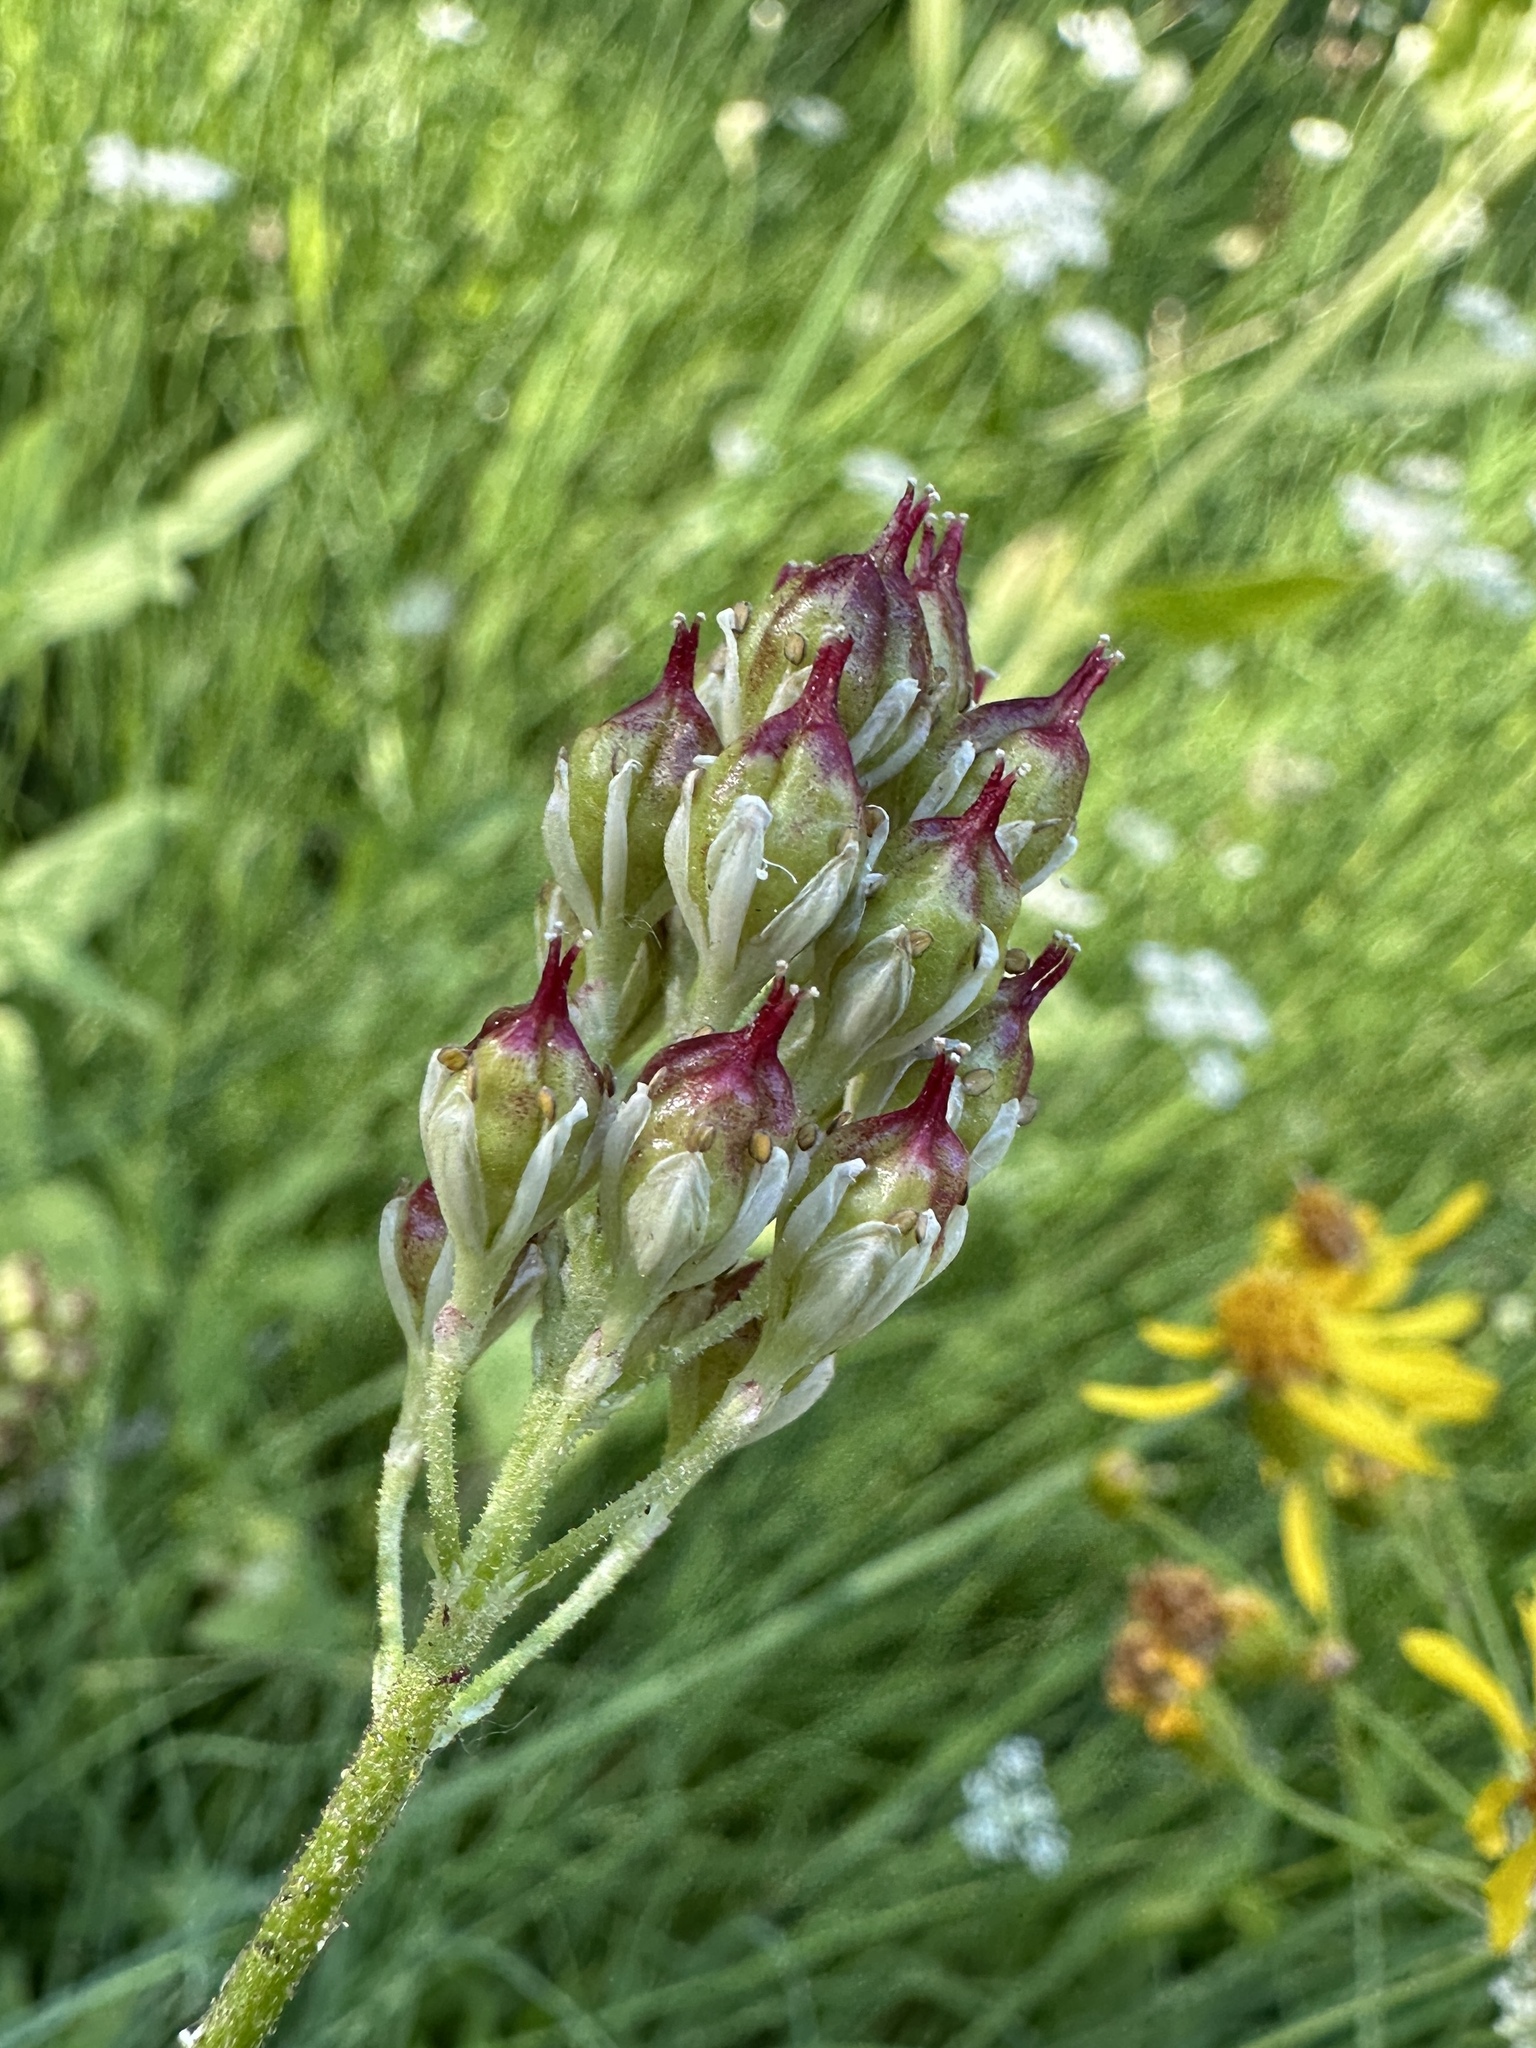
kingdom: Plantae
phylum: Tracheophyta
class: Liliopsida
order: Alismatales
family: Tofieldiaceae
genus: Triantha
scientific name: Triantha occidentalis
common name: Western false asphodel
